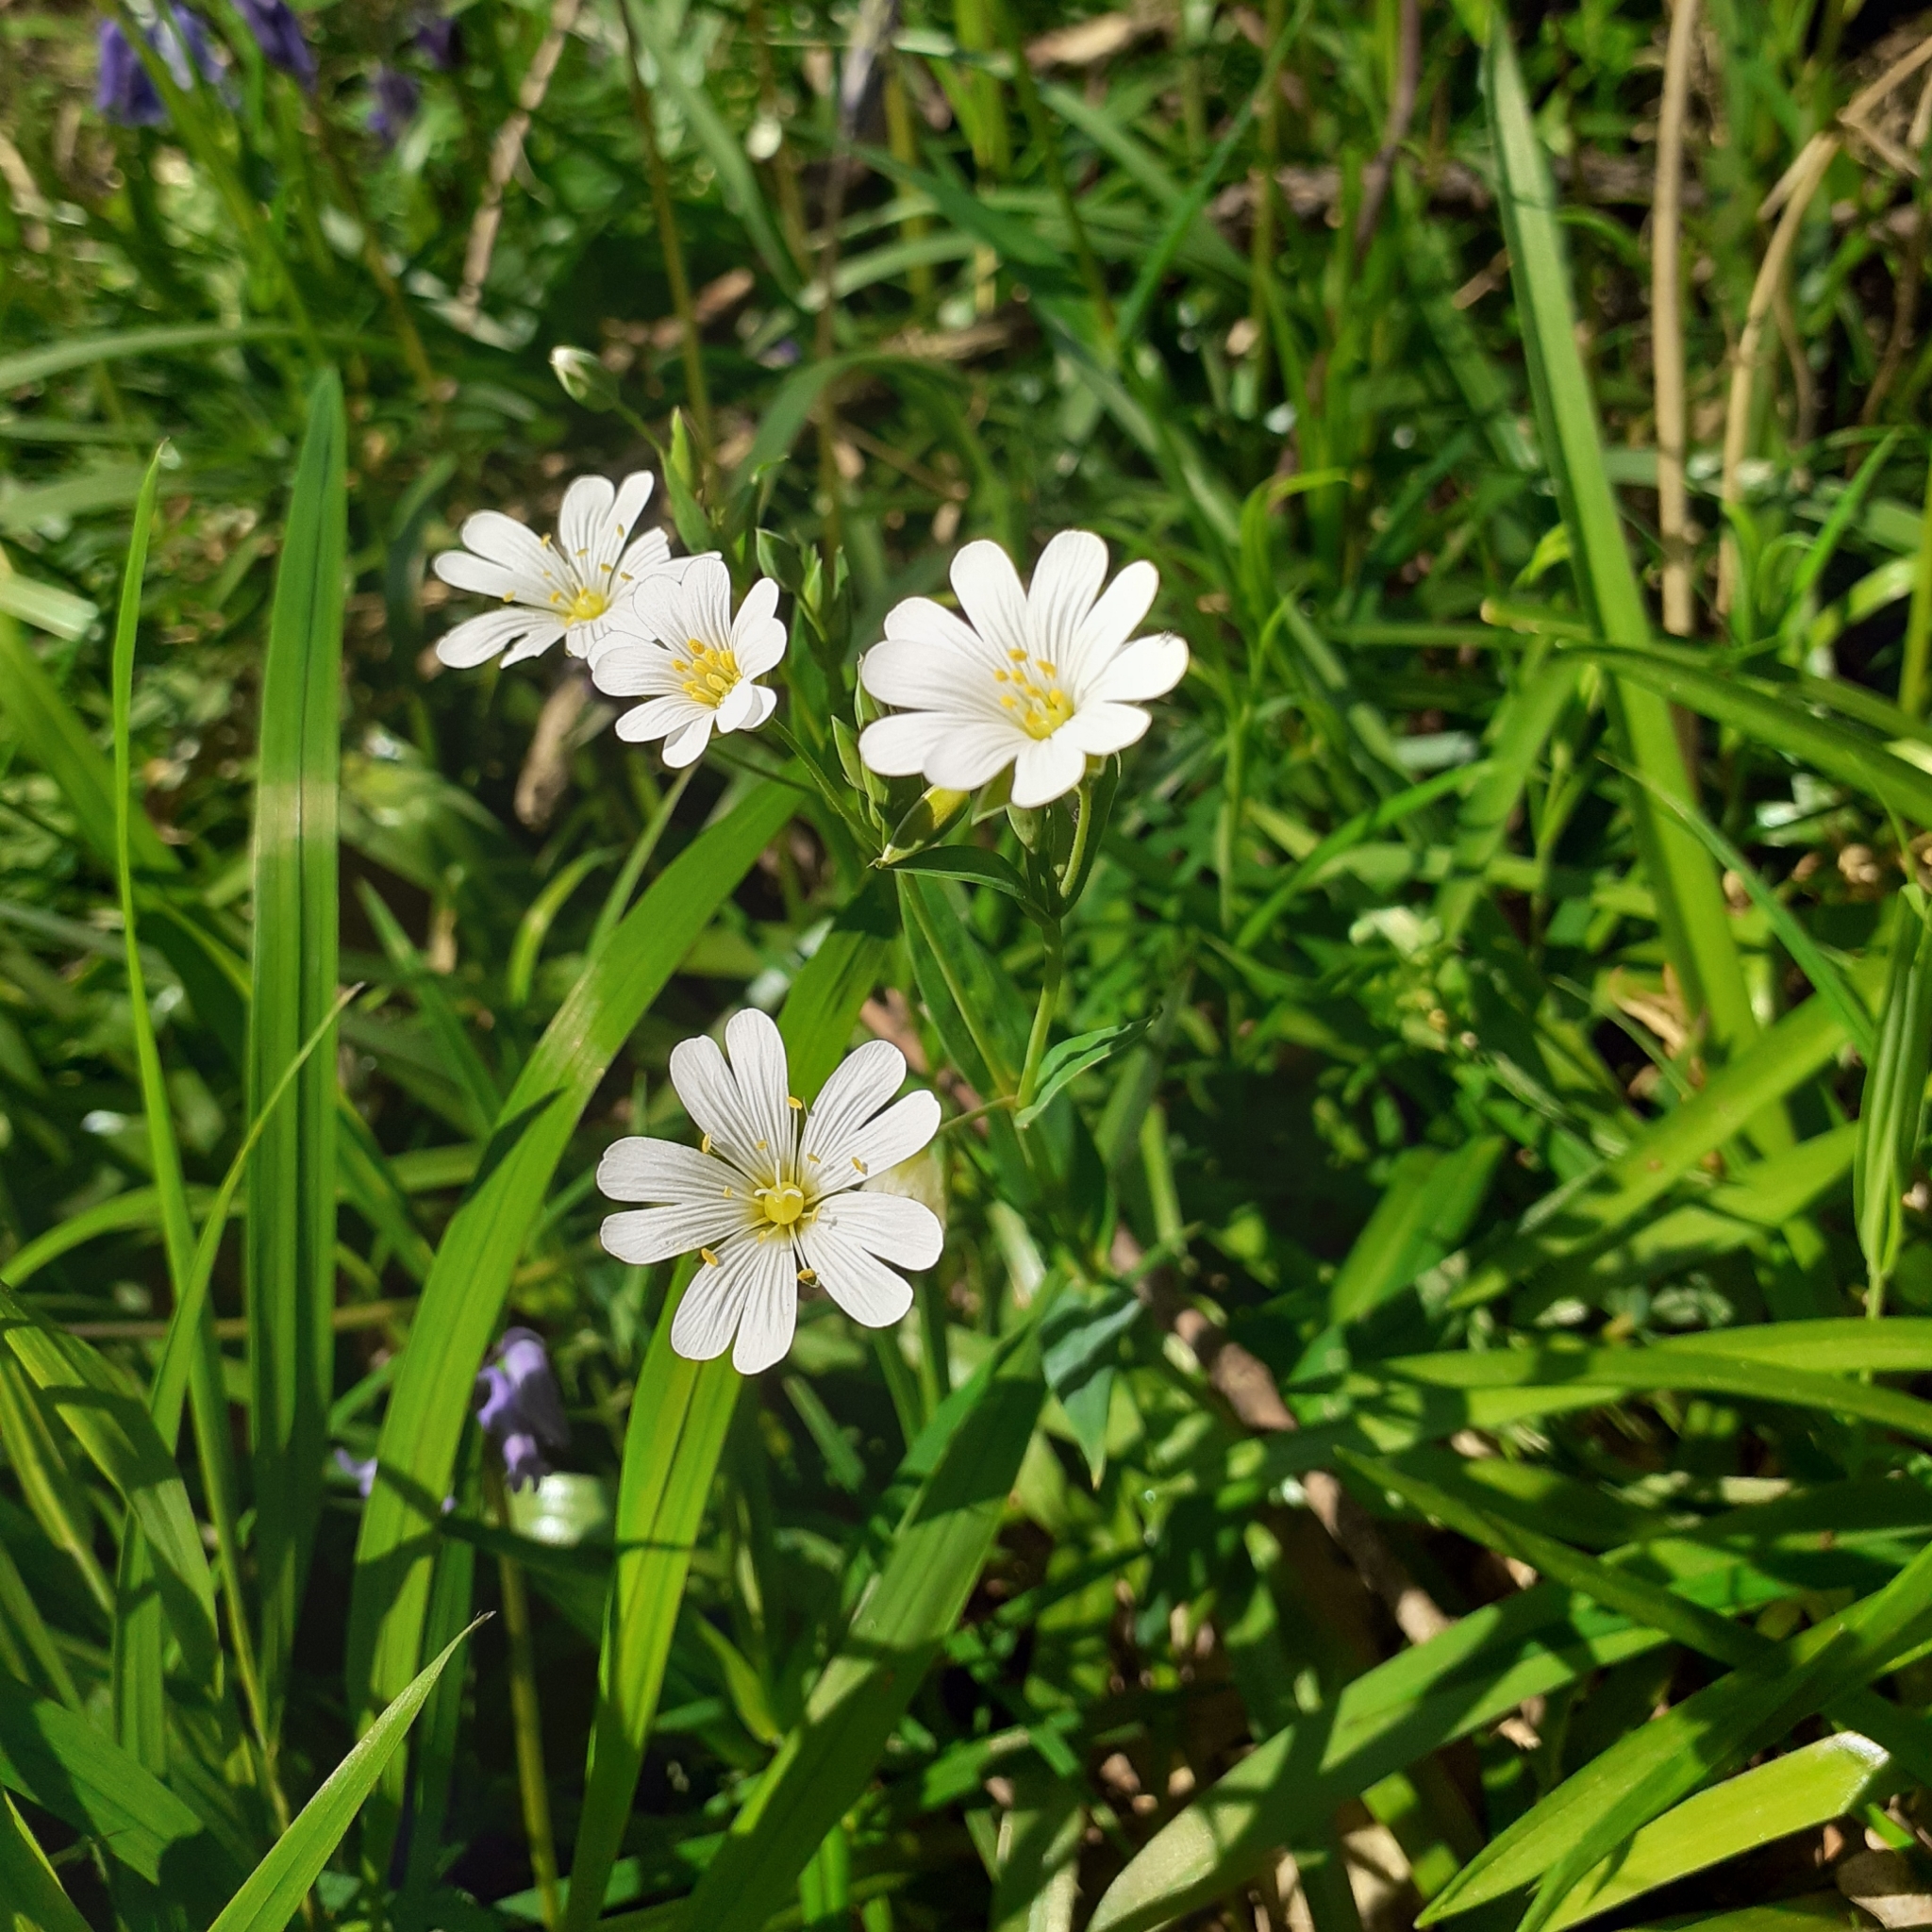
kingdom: Plantae
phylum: Tracheophyta
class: Magnoliopsida
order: Caryophyllales
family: Caryophyllaceae
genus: Rabelera
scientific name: Rabelera holostea
